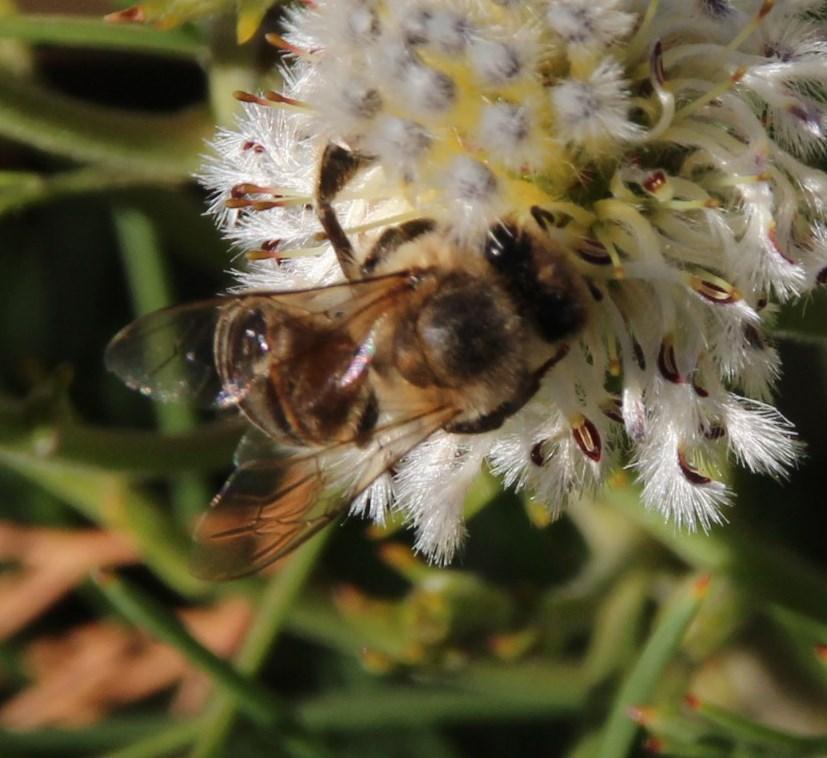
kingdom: Animalia
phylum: Arthropoda
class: Insecta
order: Hymenoptera
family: Apidae
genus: Apis
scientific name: Apis mellifera
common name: Honey bee
